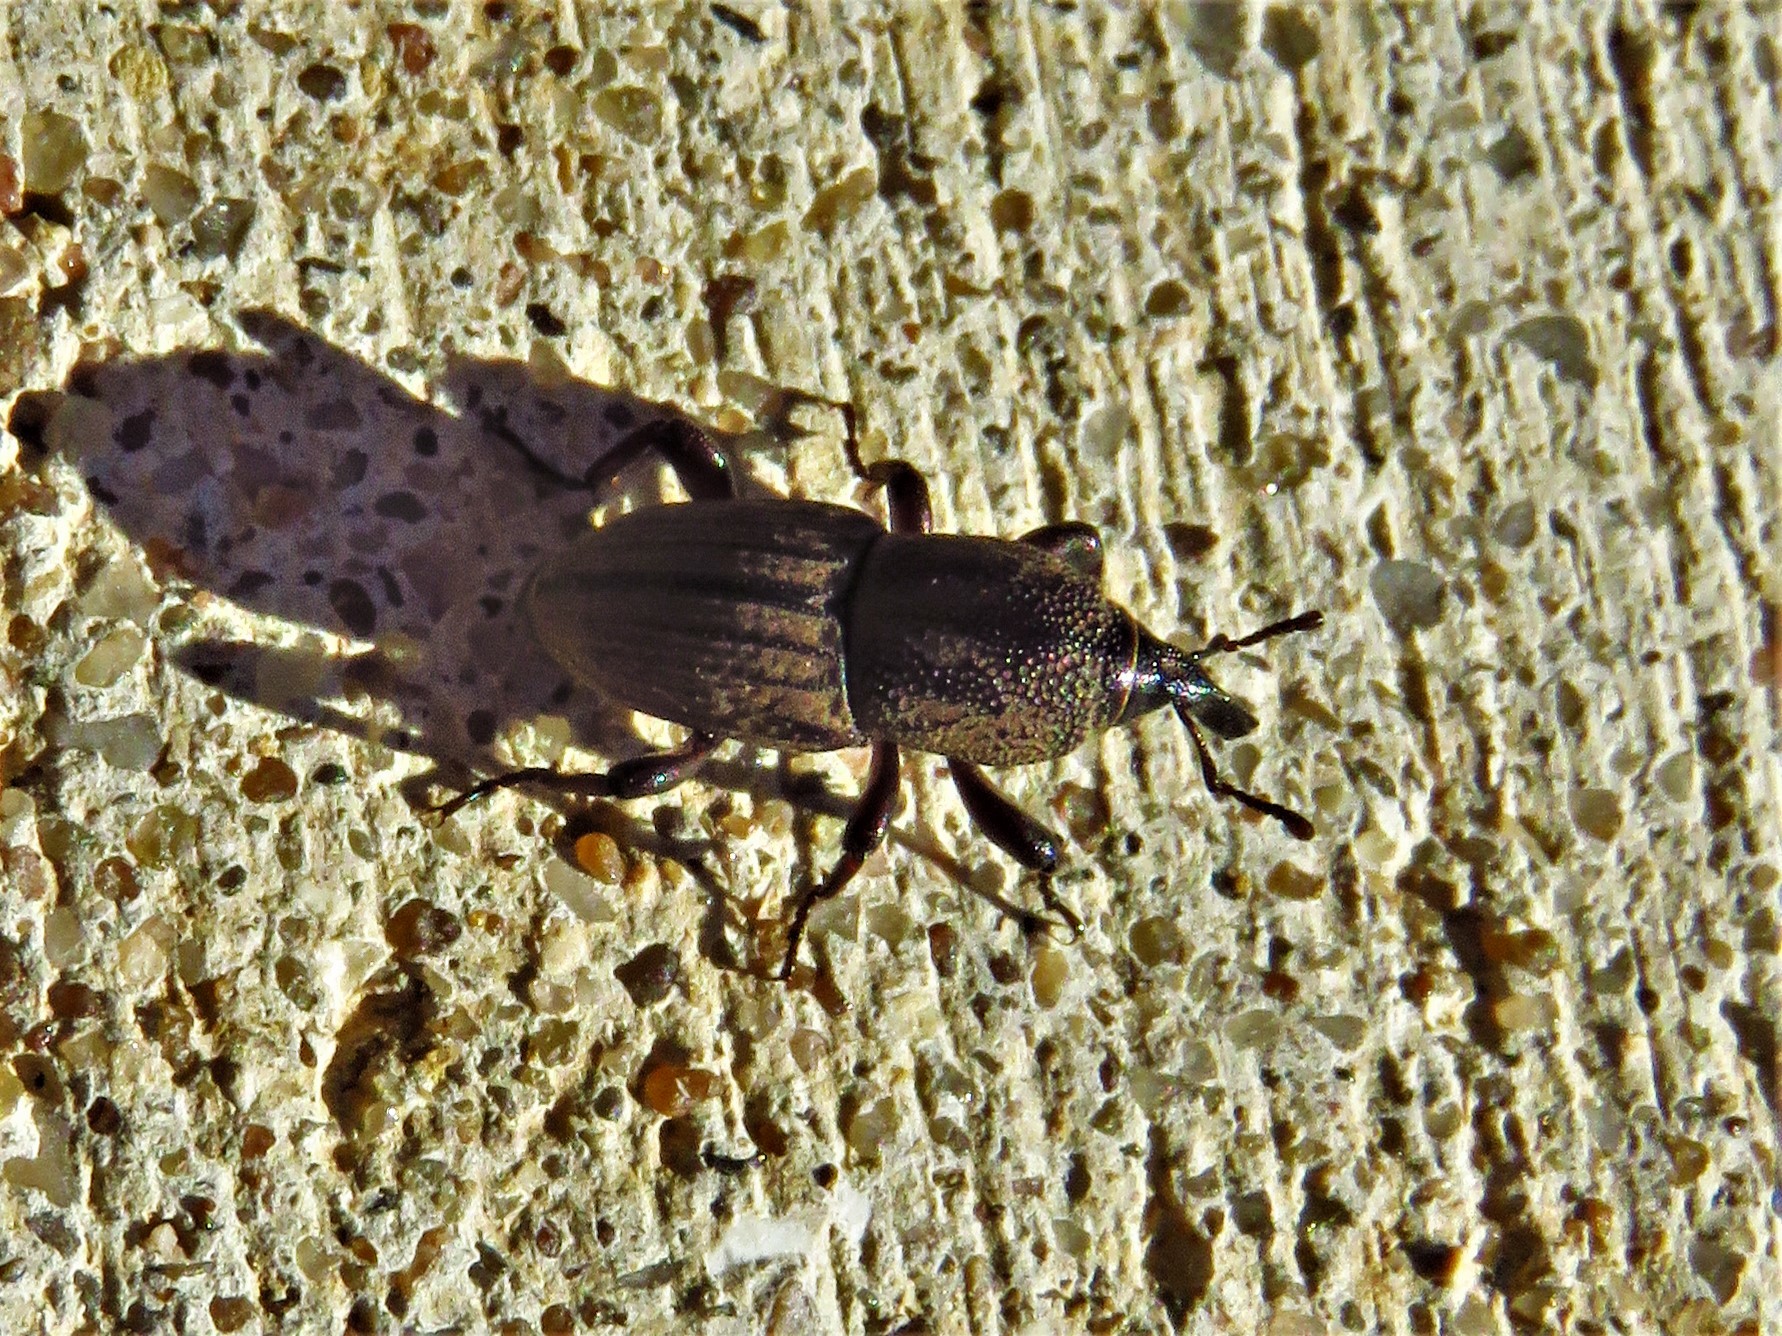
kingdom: Animalia
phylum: Arthropoda
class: Insecta
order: Coleoptera
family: Dryophthoridae
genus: Sphenophorus
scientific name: Sphenophorus compressirostris
